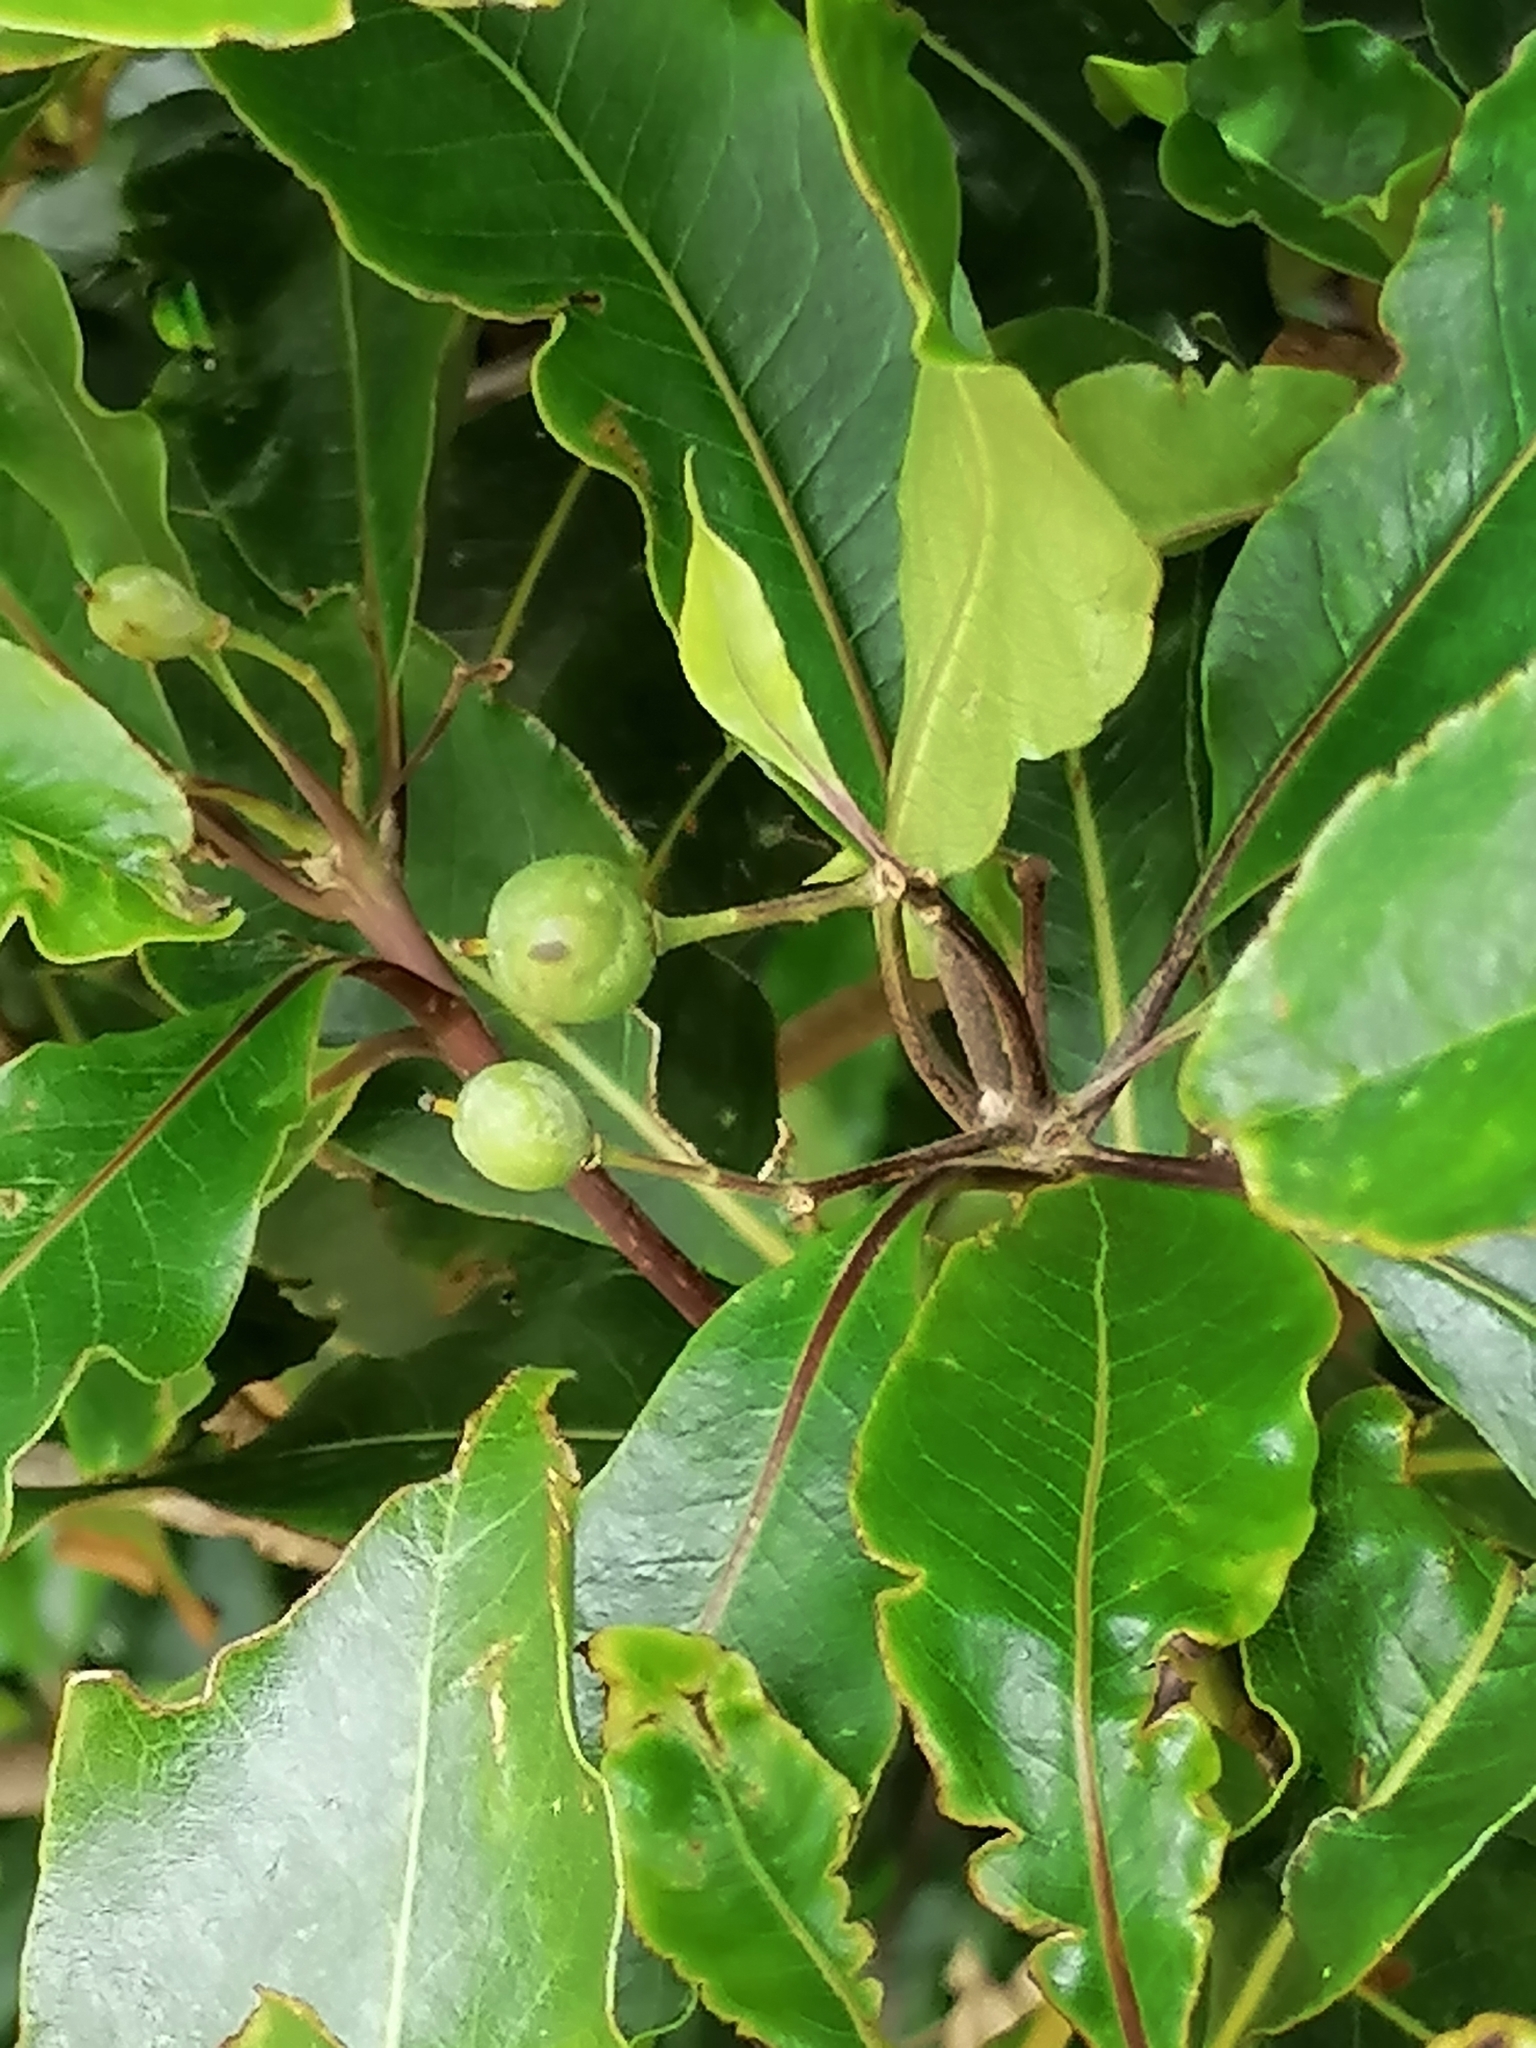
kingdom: Plantae
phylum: Tracheophyta
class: Magnoliopsida
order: Apiales
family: Pittosporaceae
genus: Pittosporum
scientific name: Pittosporum undulatum
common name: Australian cheesewood
